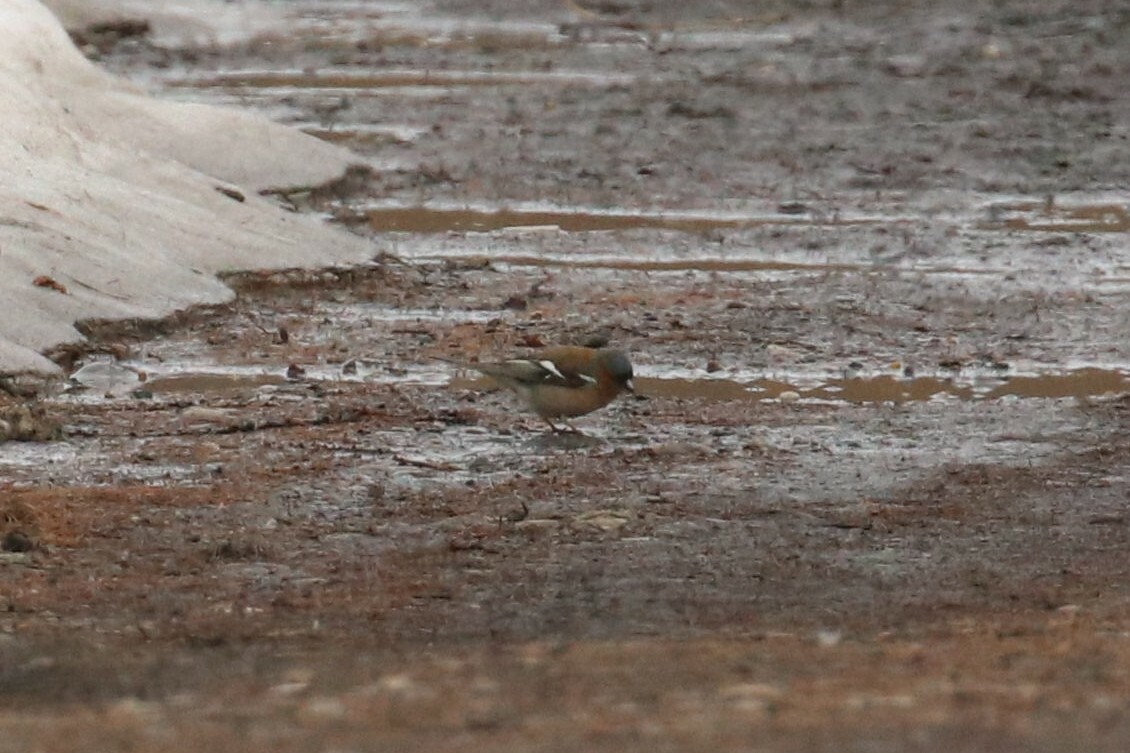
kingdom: Animalia
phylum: Chordata
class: Aves
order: Passeriformes
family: Fringillidae
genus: Fringilla
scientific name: Fringilla coelebs
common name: Common chaffinch
